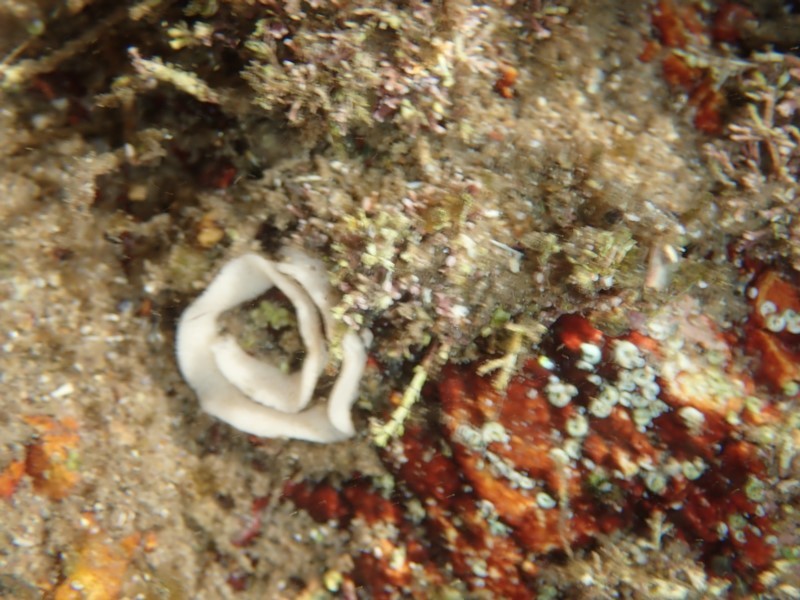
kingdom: Animalia
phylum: Mollusca
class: Gastropoda
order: Nudibranchia
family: Chromodorididae
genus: Hypselodoris
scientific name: Hypselodoris obscura
